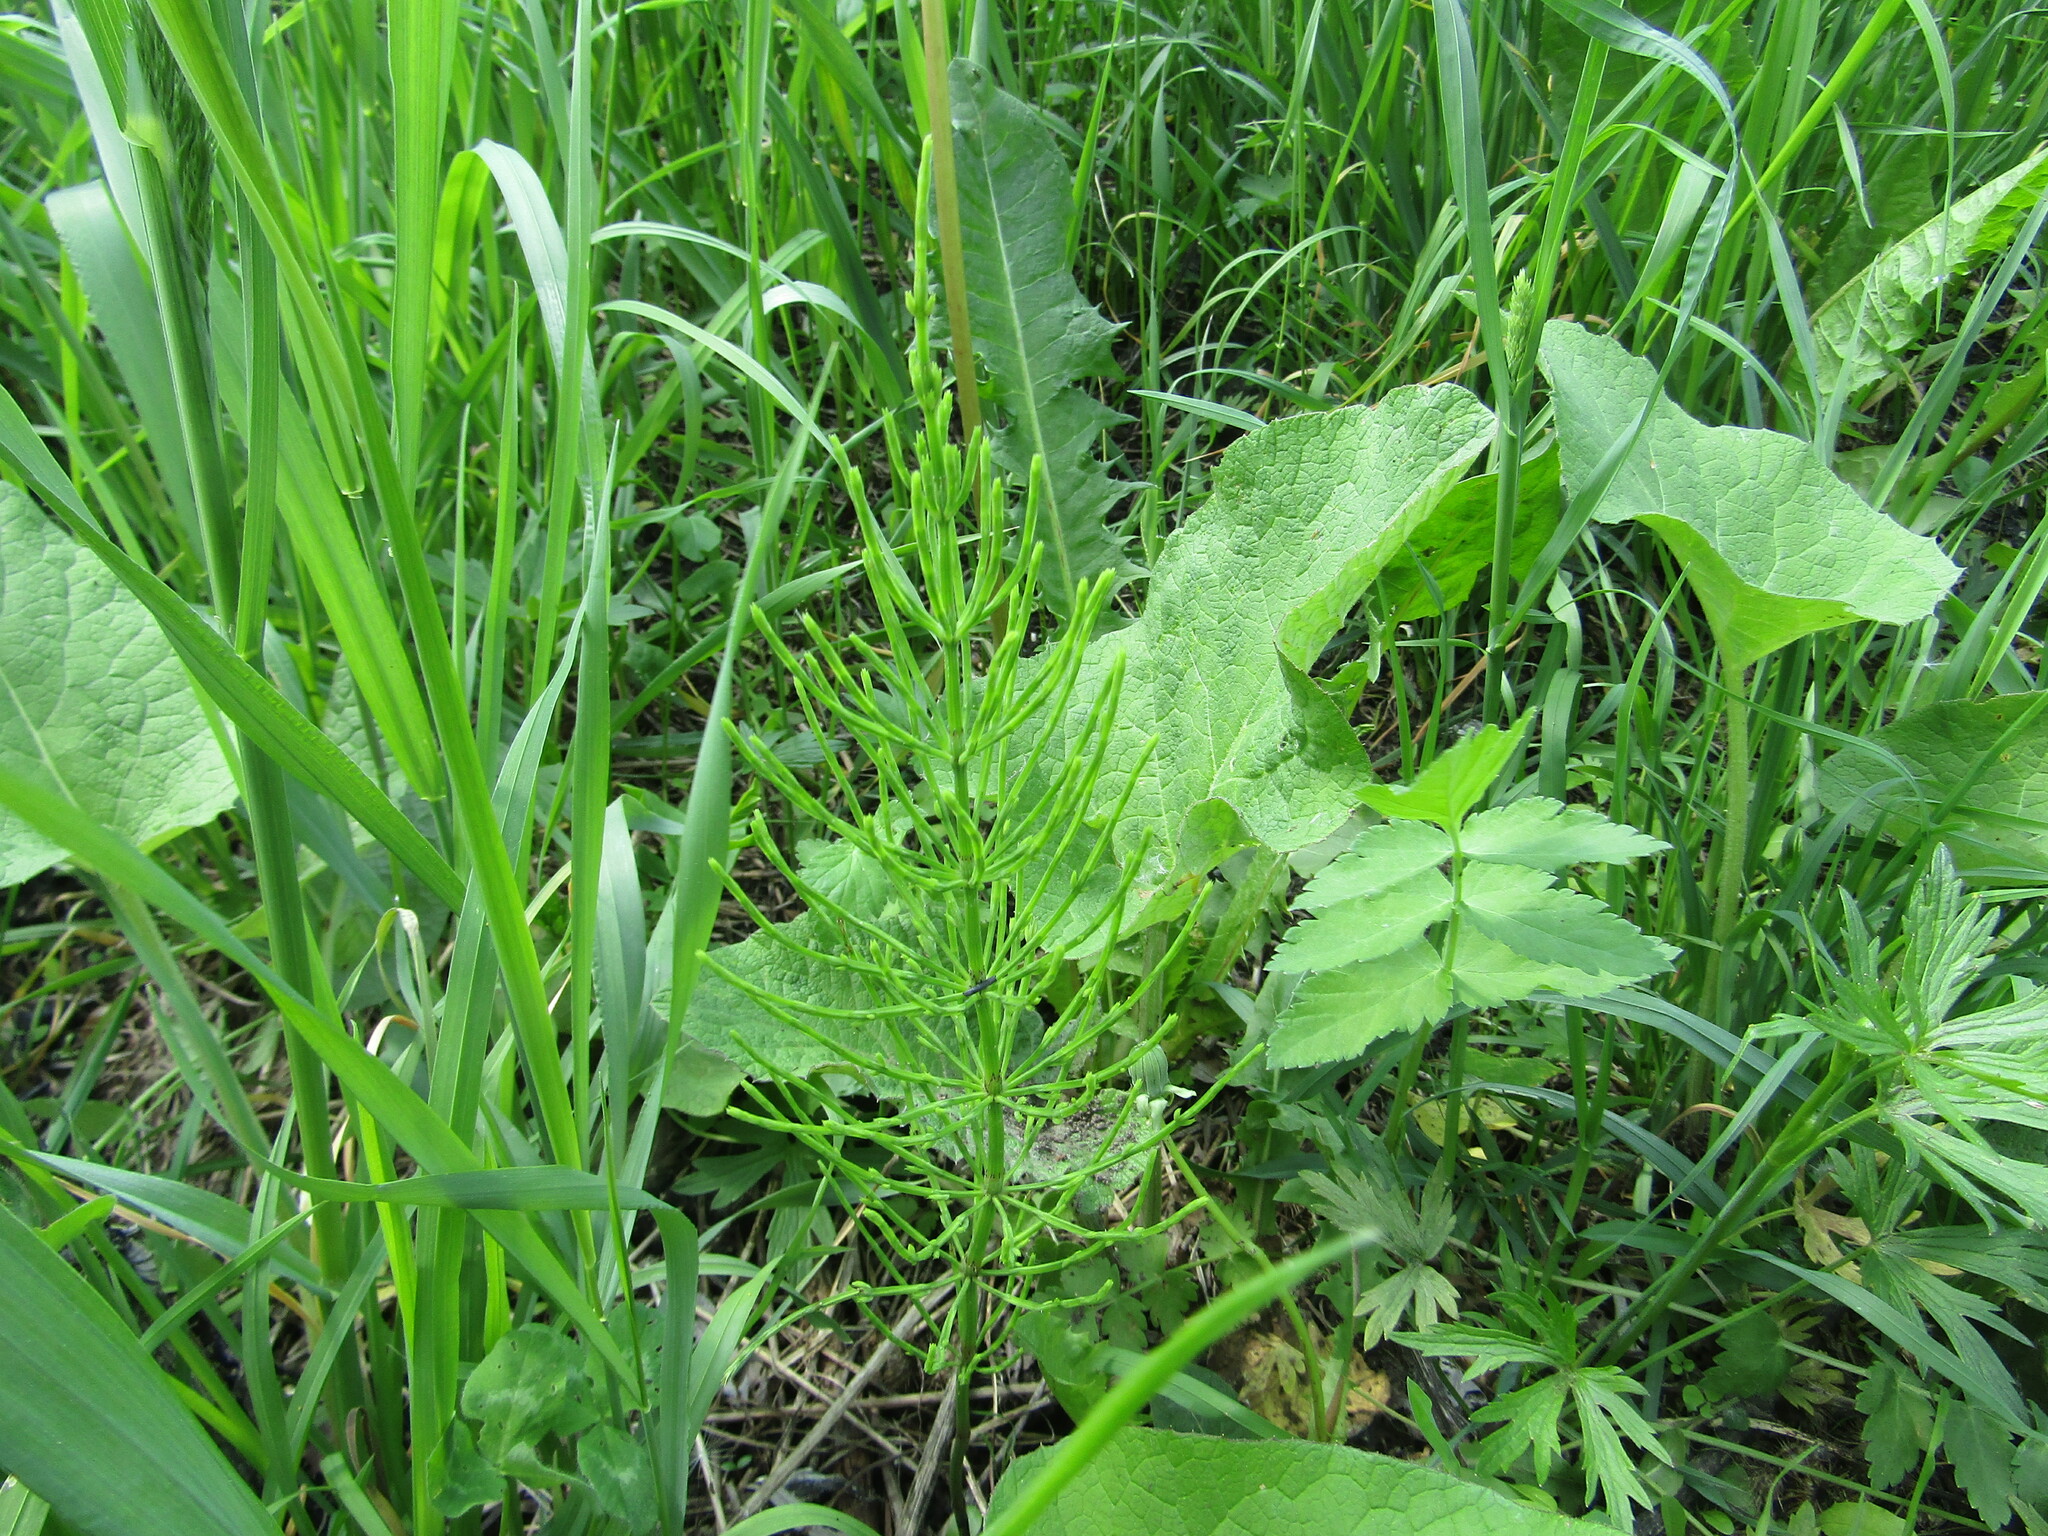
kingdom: Plantae
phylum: Tracheophyta
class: Polypodiopsida
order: Equisetales
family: Equisetaceae
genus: Equisetum
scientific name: Equisetum arvense
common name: Field horsetail
